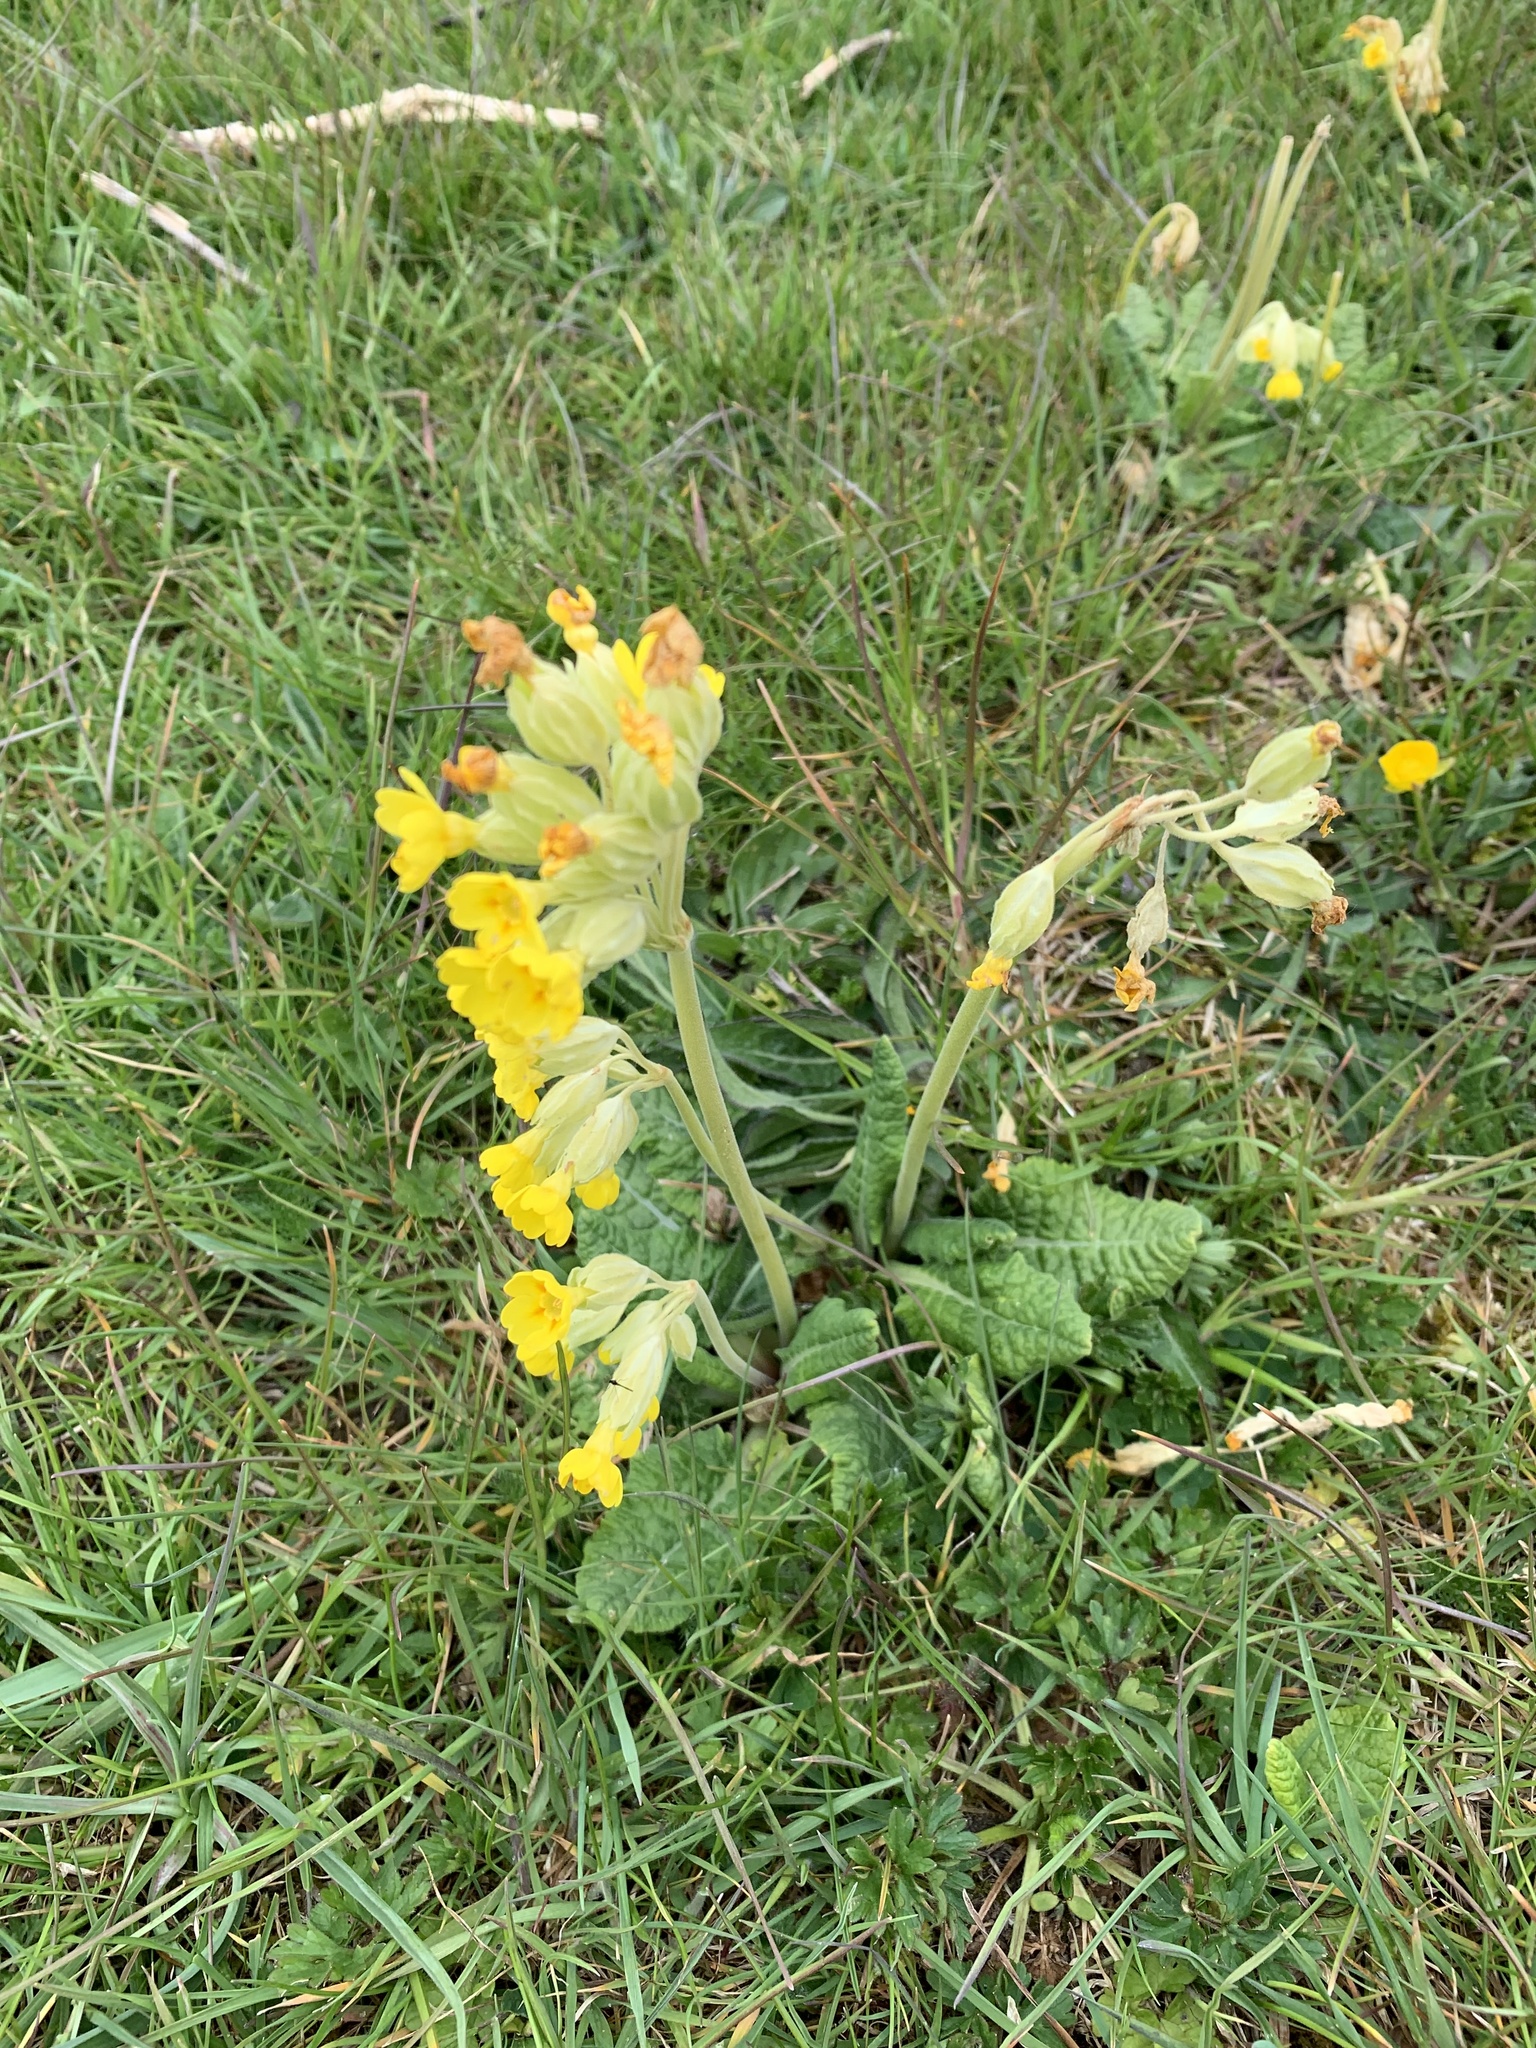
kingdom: Plantae
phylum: Tracheophyta
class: Magnoliopsida
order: Ericales
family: Primulaceae
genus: Primula
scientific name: Primula veris
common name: Cowslip
